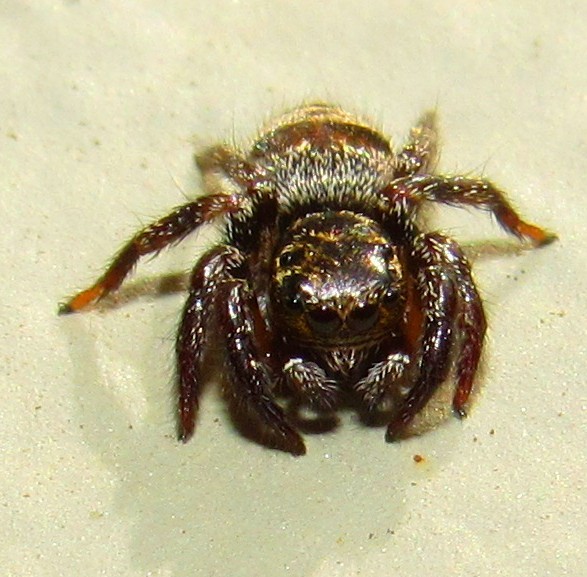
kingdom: Animalia
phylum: Arthropoda
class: Arachnida
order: Araneae
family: Salticidae
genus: Corythalia
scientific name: Corythalia conferta
